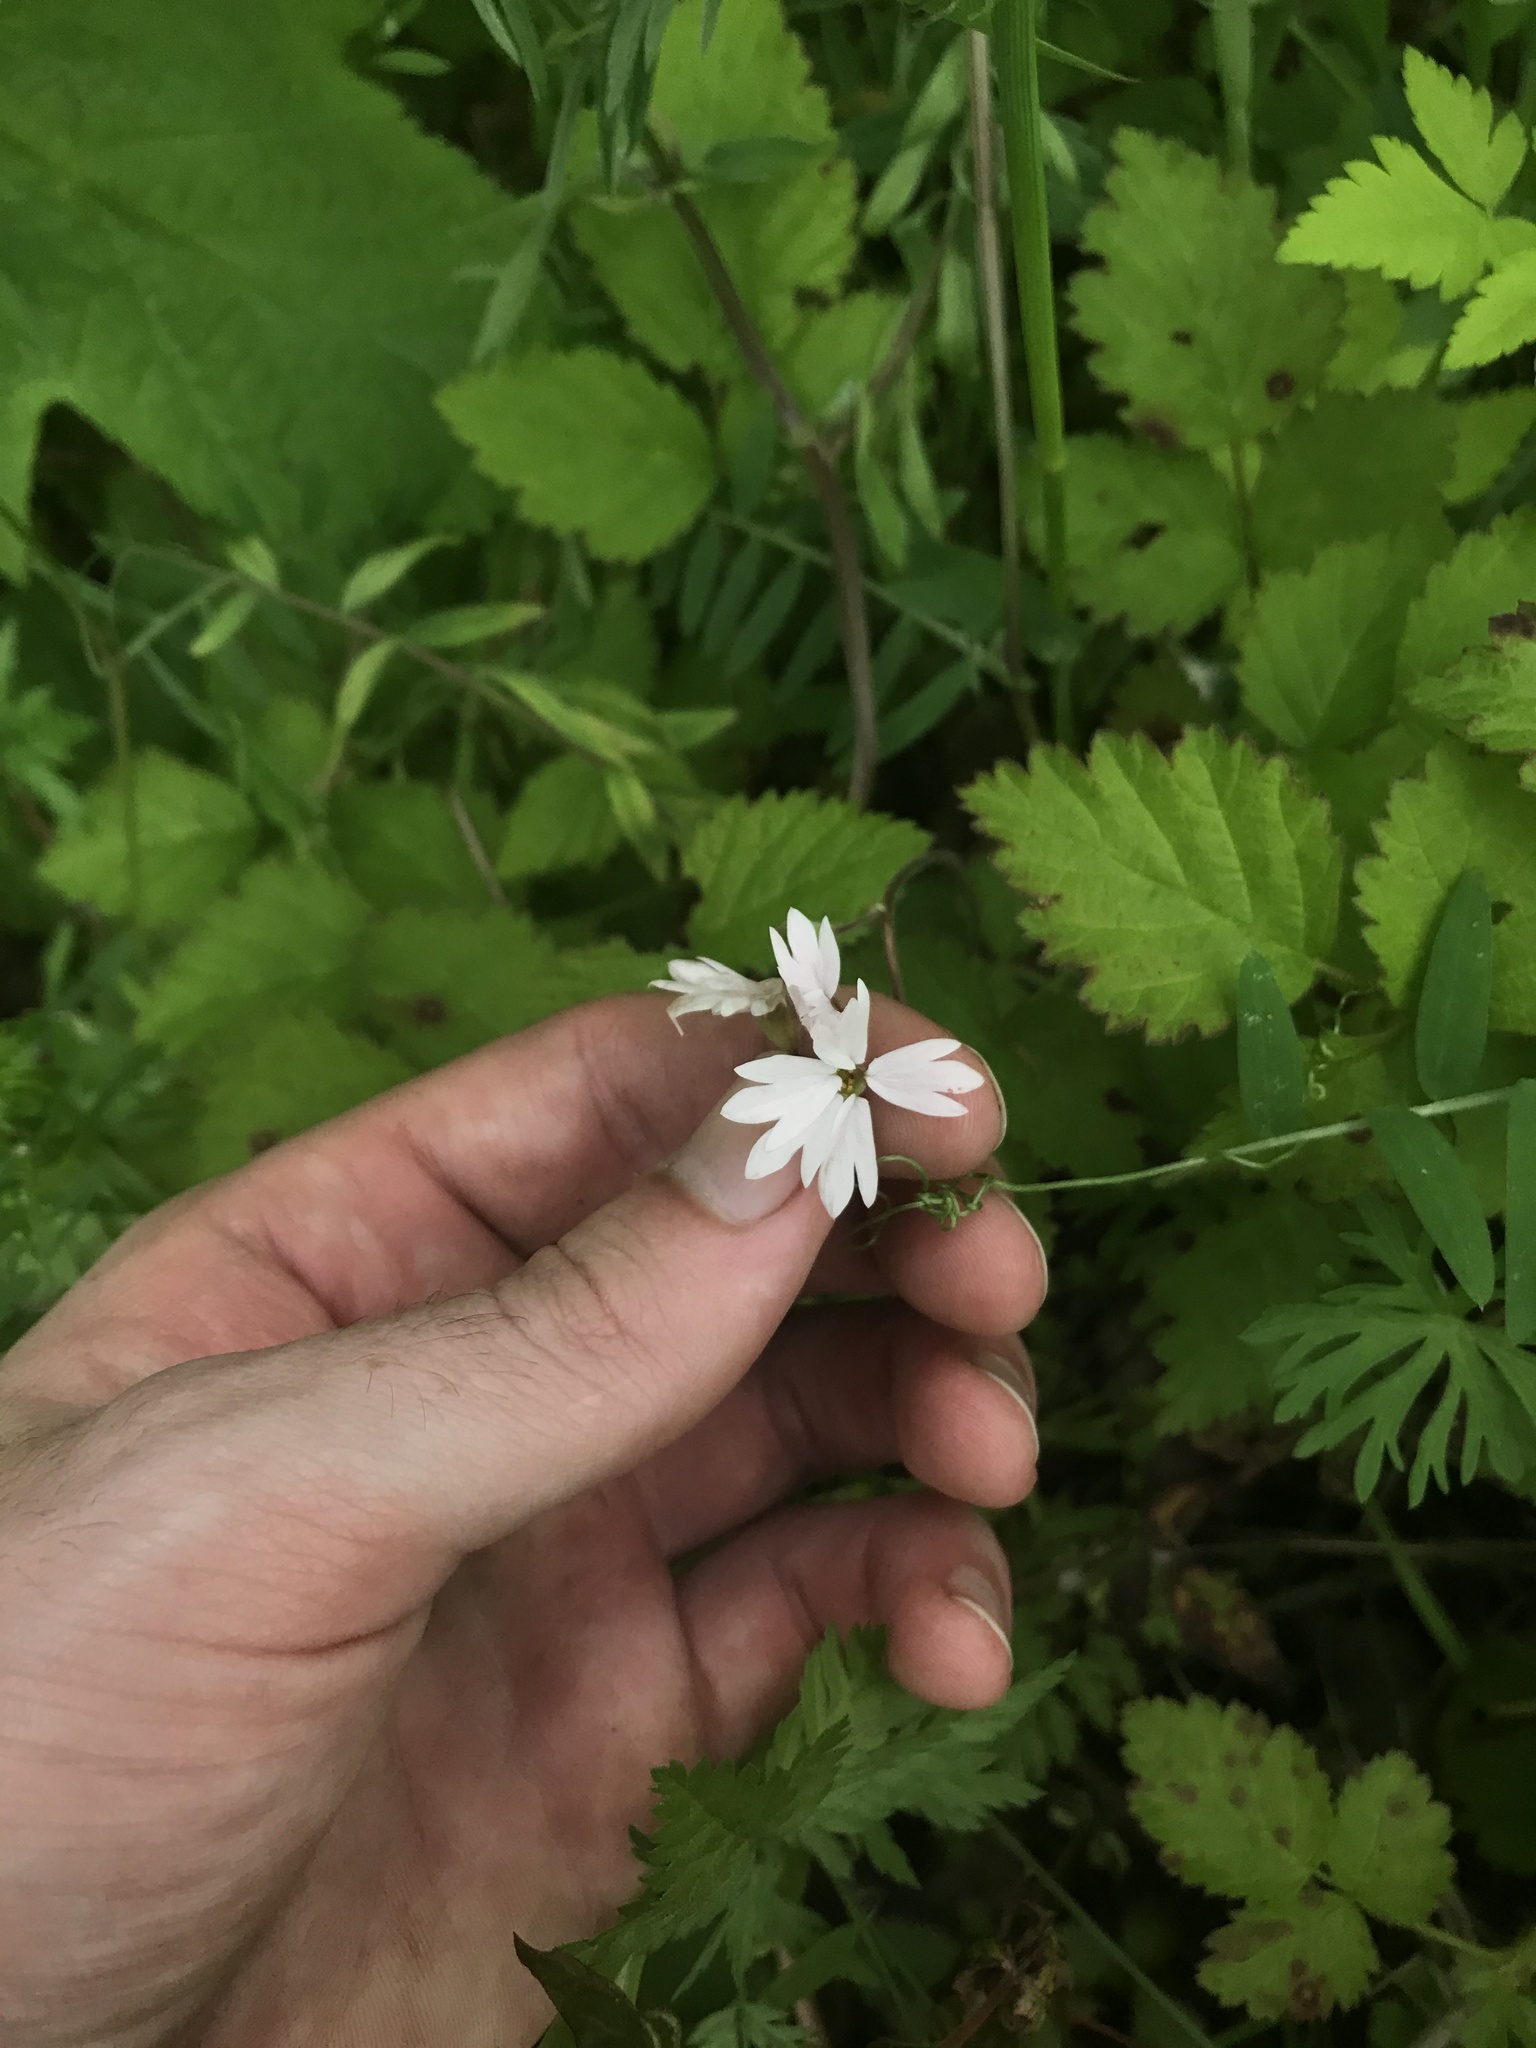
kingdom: Plantae
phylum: Tracheophyta
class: Magnoliopsida
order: Saxifragales
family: Saxifragaceae
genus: Lithophragma
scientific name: Lithophragma parviflorum
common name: Small-flowered fringe-cup
